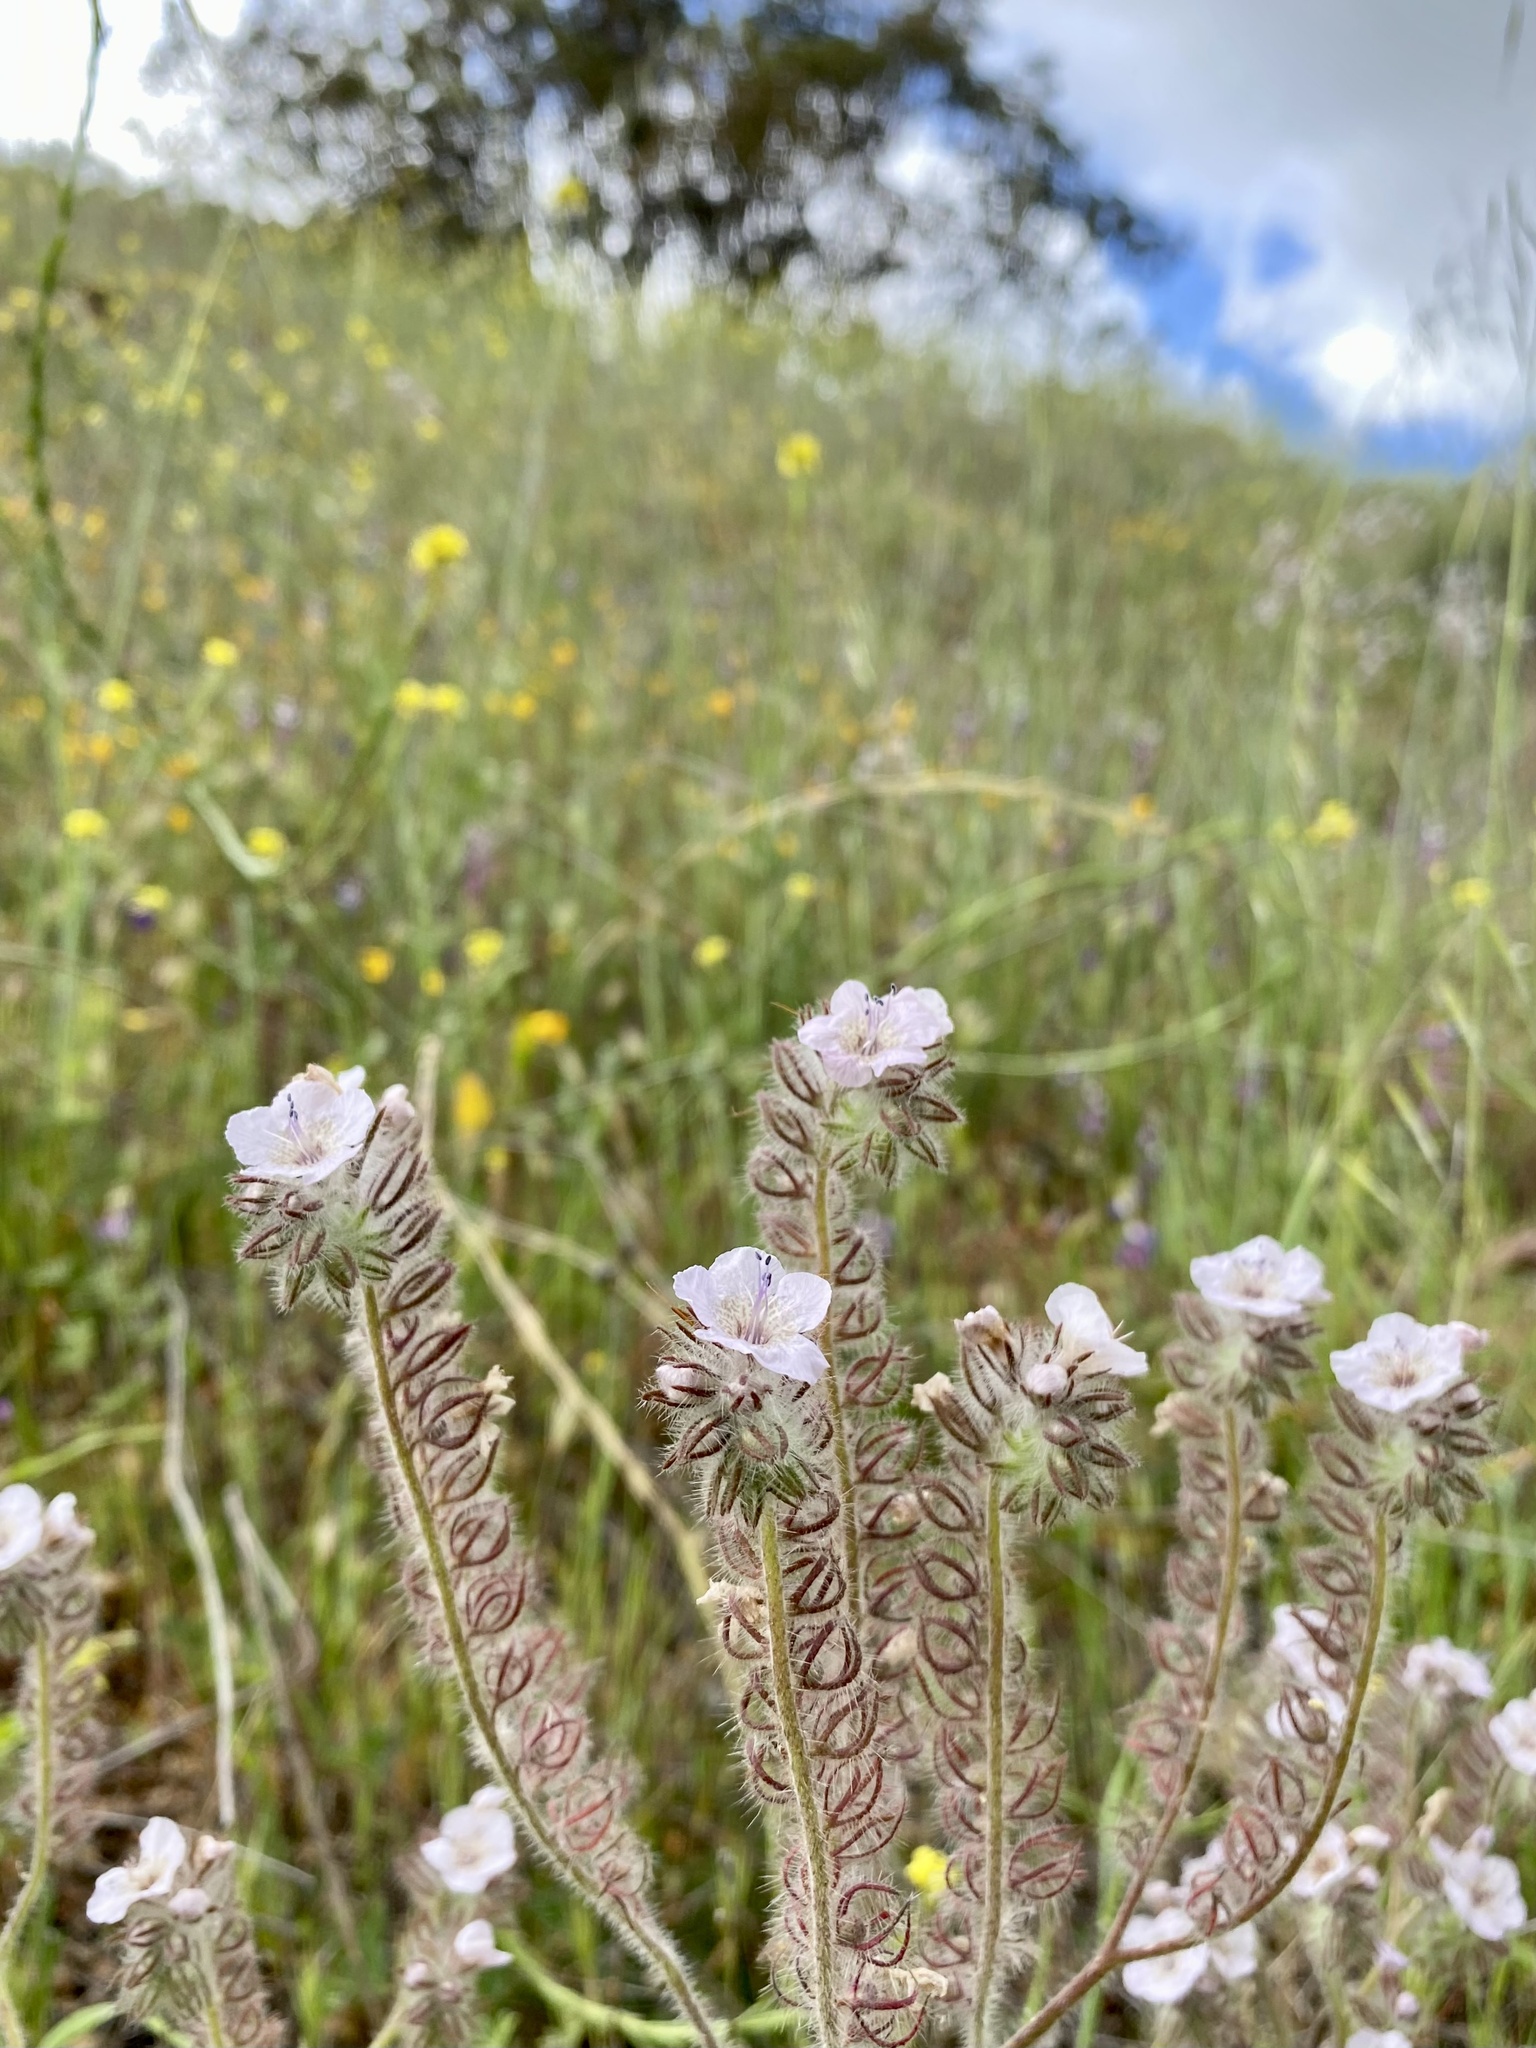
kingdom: Plantae
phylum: Tracheophyta
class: Magnoliopsida
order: Boraginales
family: Hydrophyllaceae
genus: Phacelia
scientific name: Phacelia cicutaria
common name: Caterpillar phacelia
